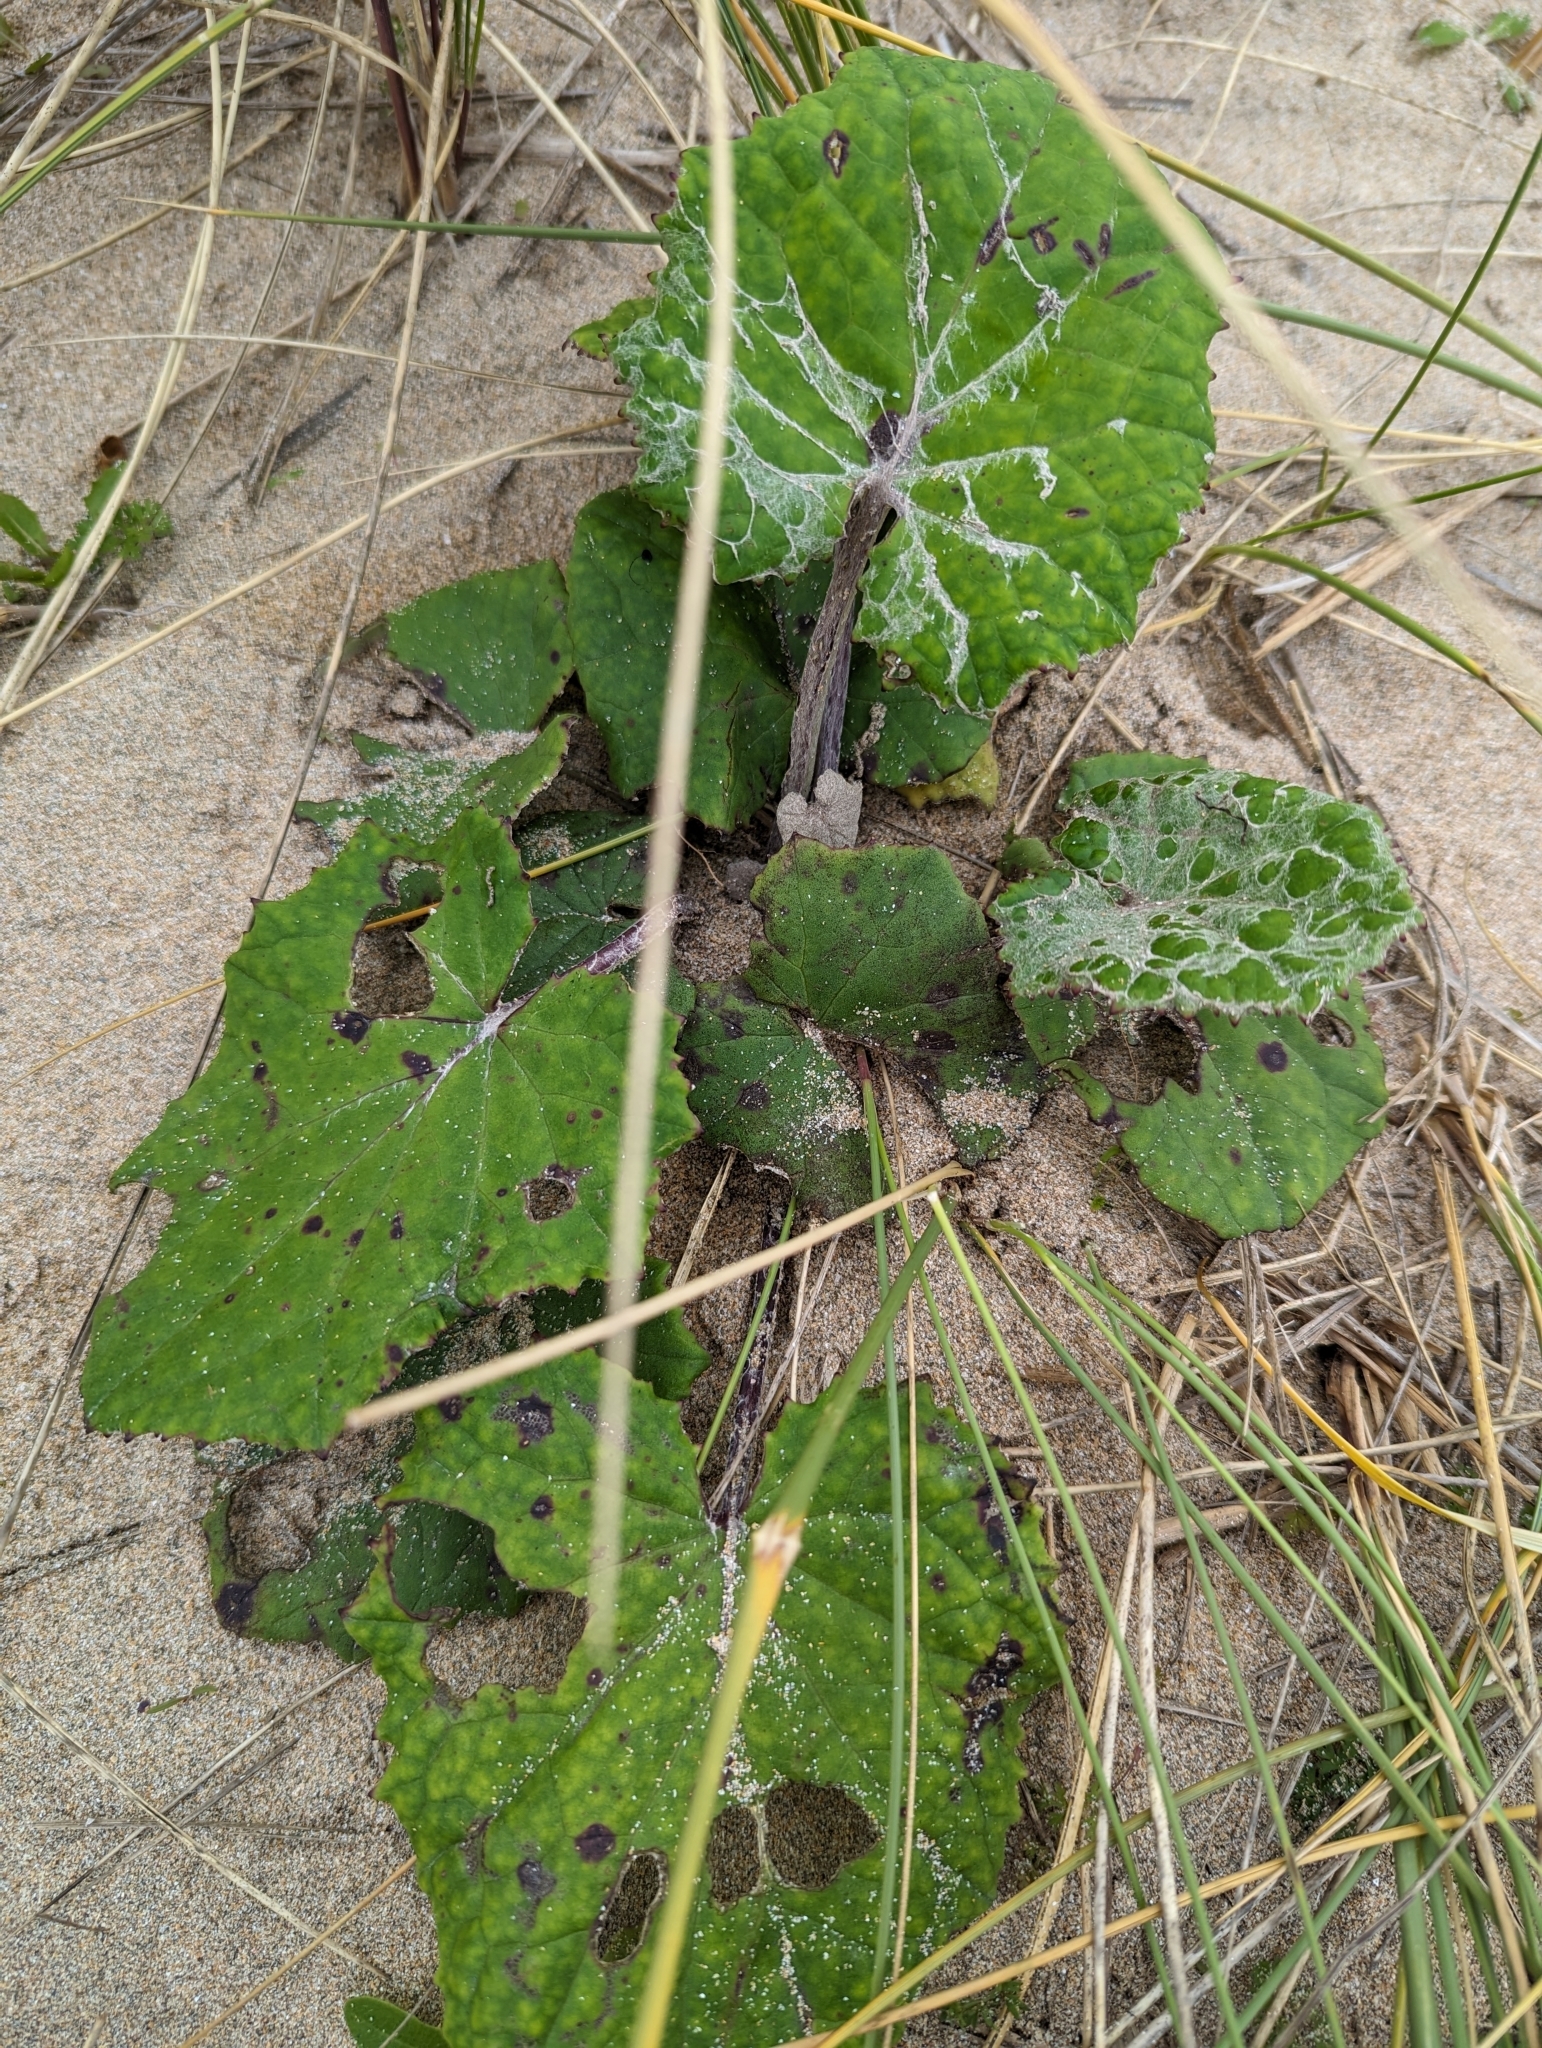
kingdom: Plantae
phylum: Tracheophyta
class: Magnoliopsida
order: Asterales
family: Asteraceae
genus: Tussilago
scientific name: Tussilago farfara
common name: Coltsfoot
